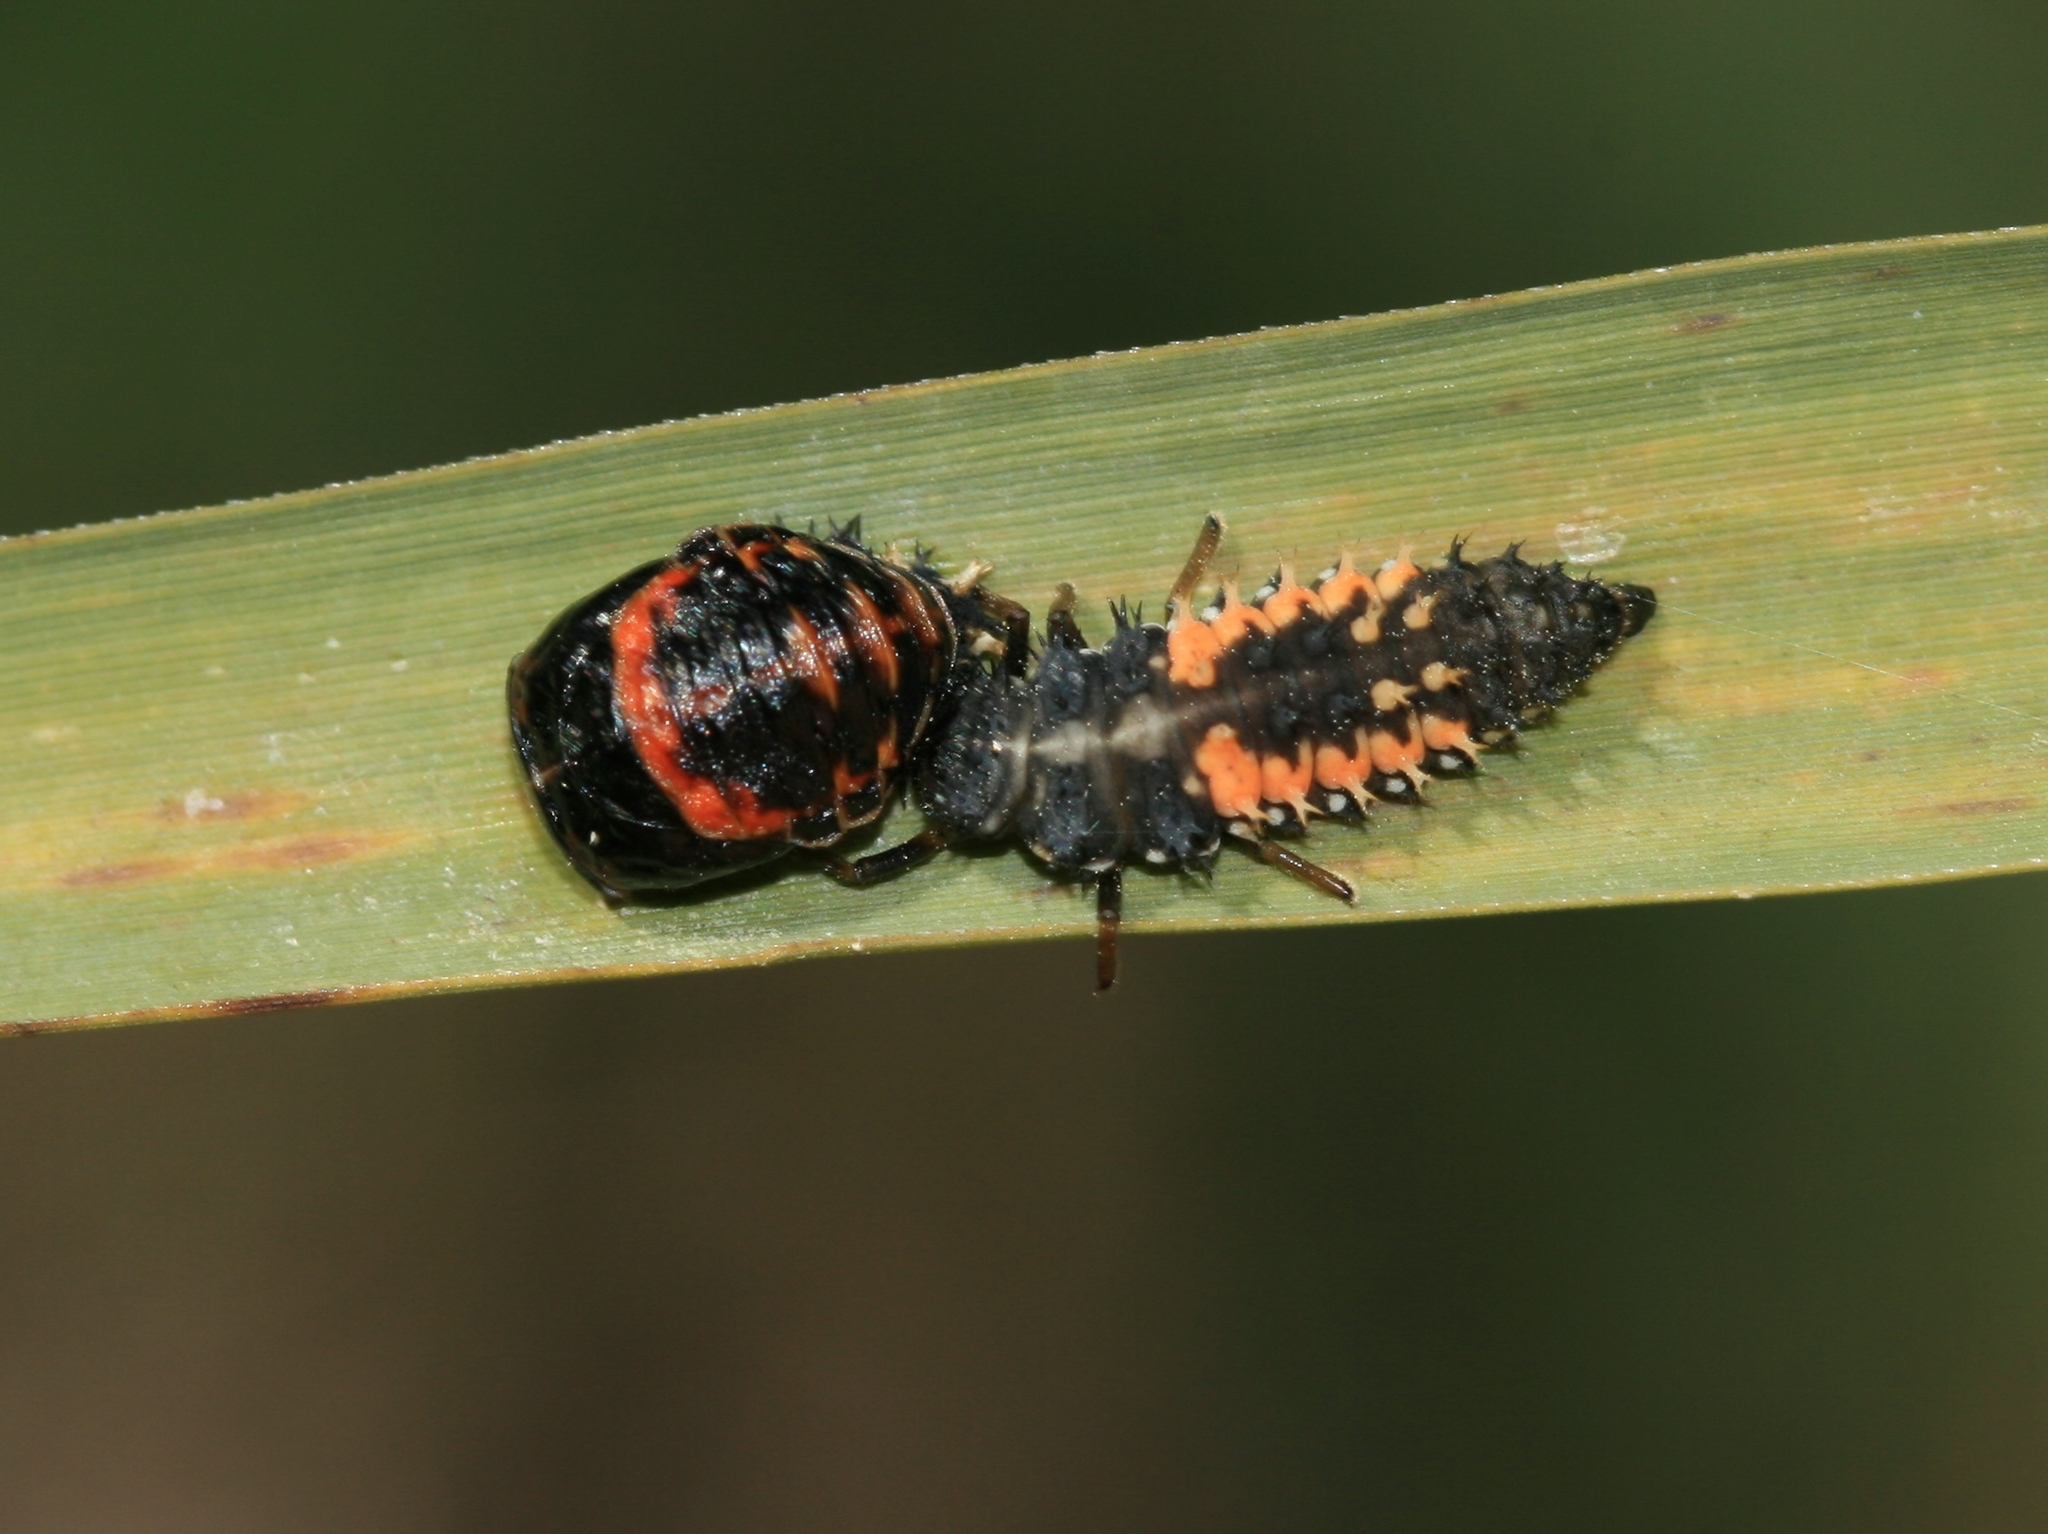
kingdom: Animalia
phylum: Arthropoda
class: Insecta
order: Coleoptera
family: Coccinellidae
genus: Harmonia
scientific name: Harmonia axyridis
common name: Harlequin ladybird
